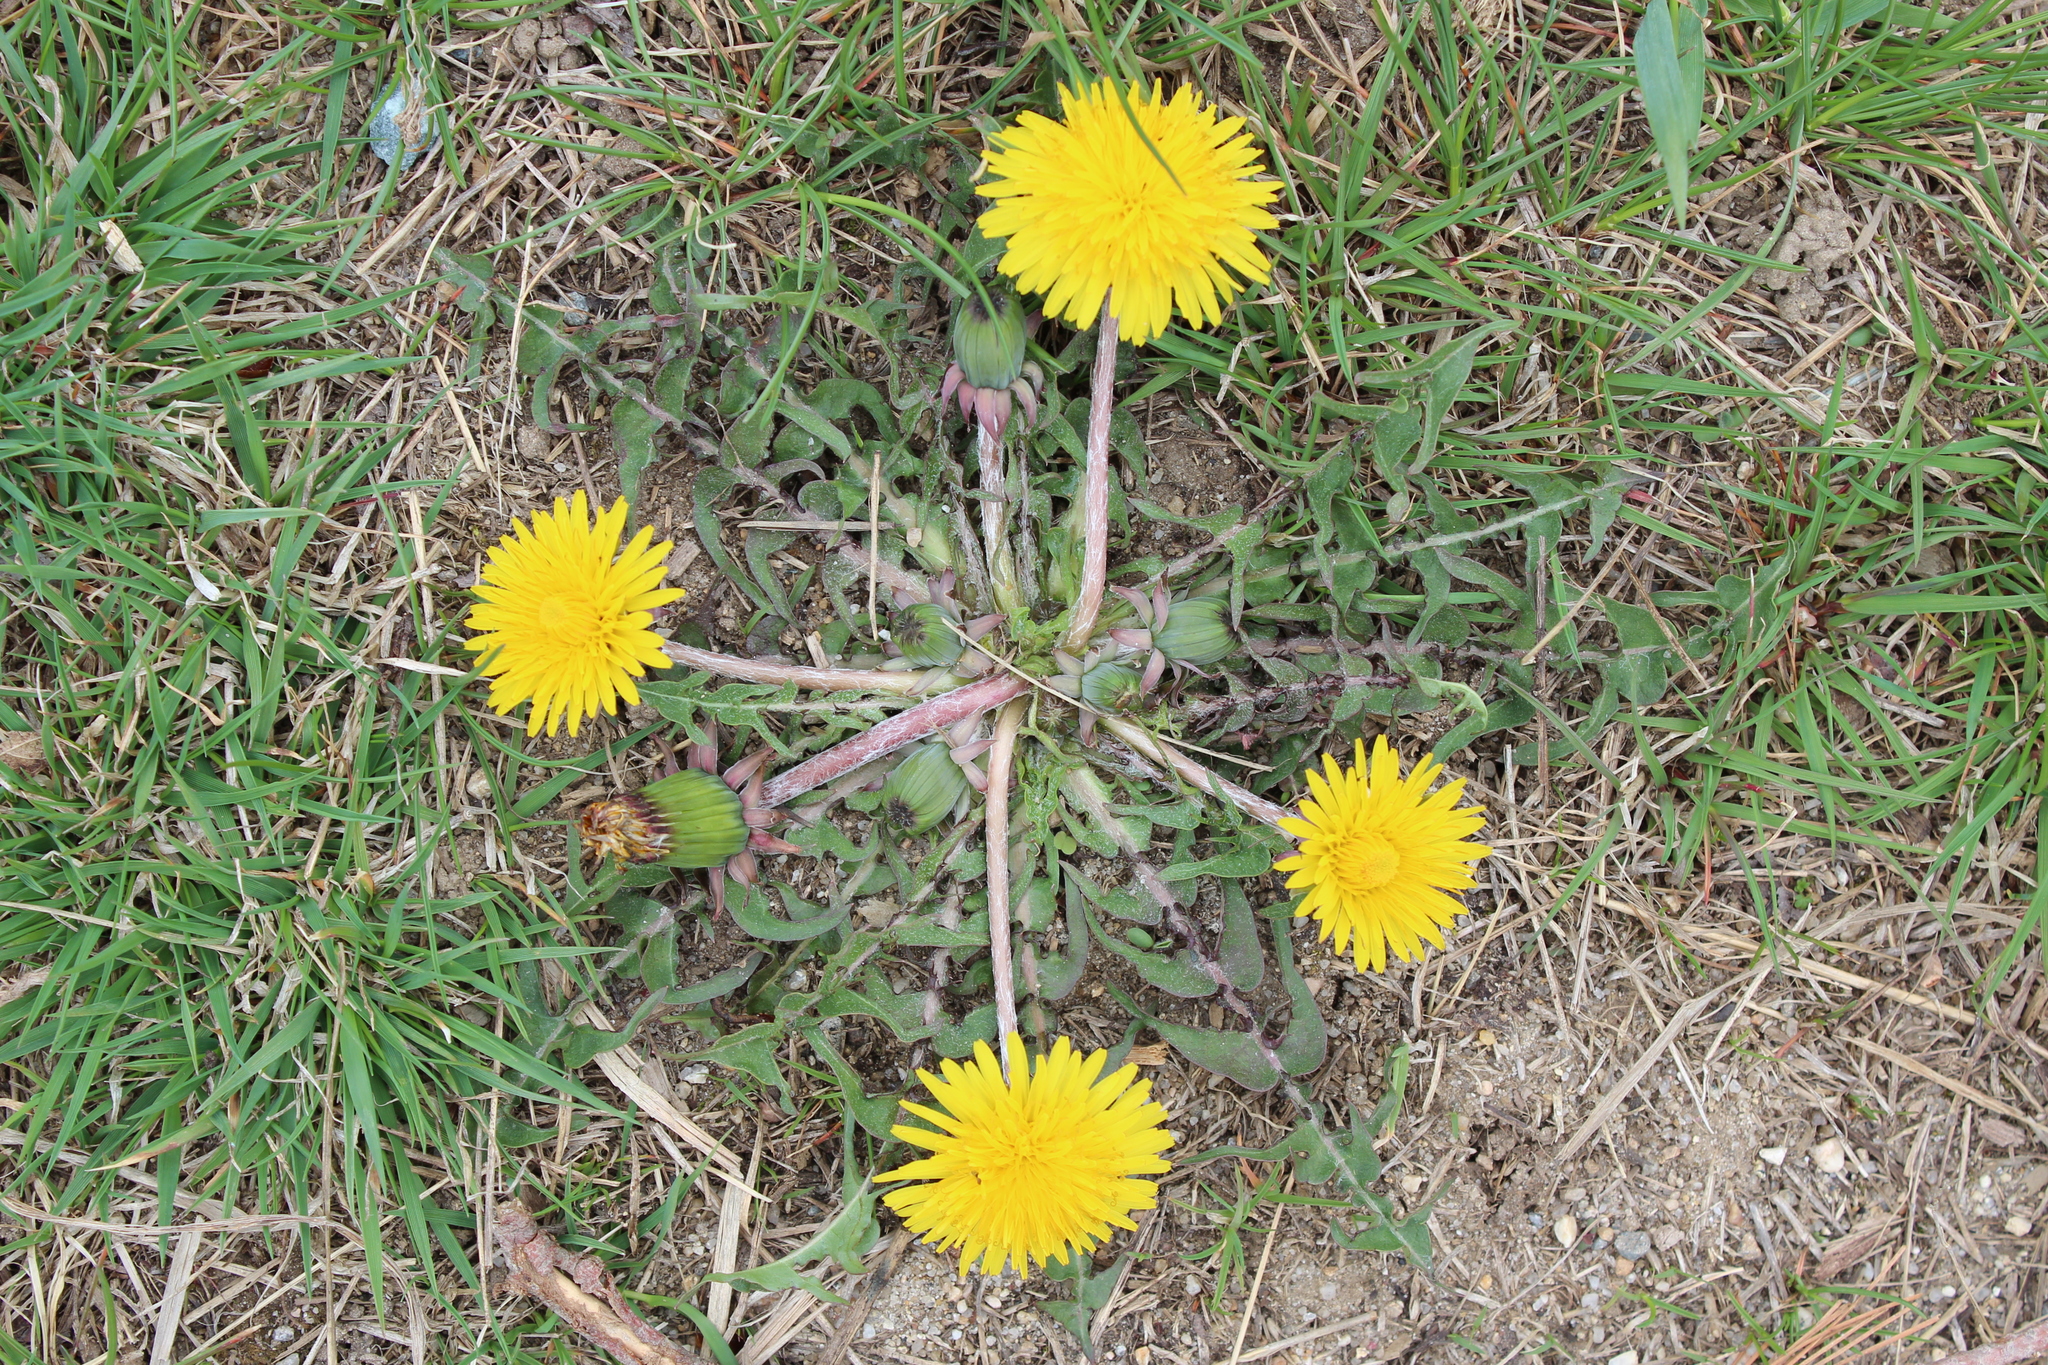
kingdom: Plantae
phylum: Tracheophyta
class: Magnoliopsida
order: Asterales
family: Asteraceae
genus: Taraxacum
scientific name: Taraxacum
